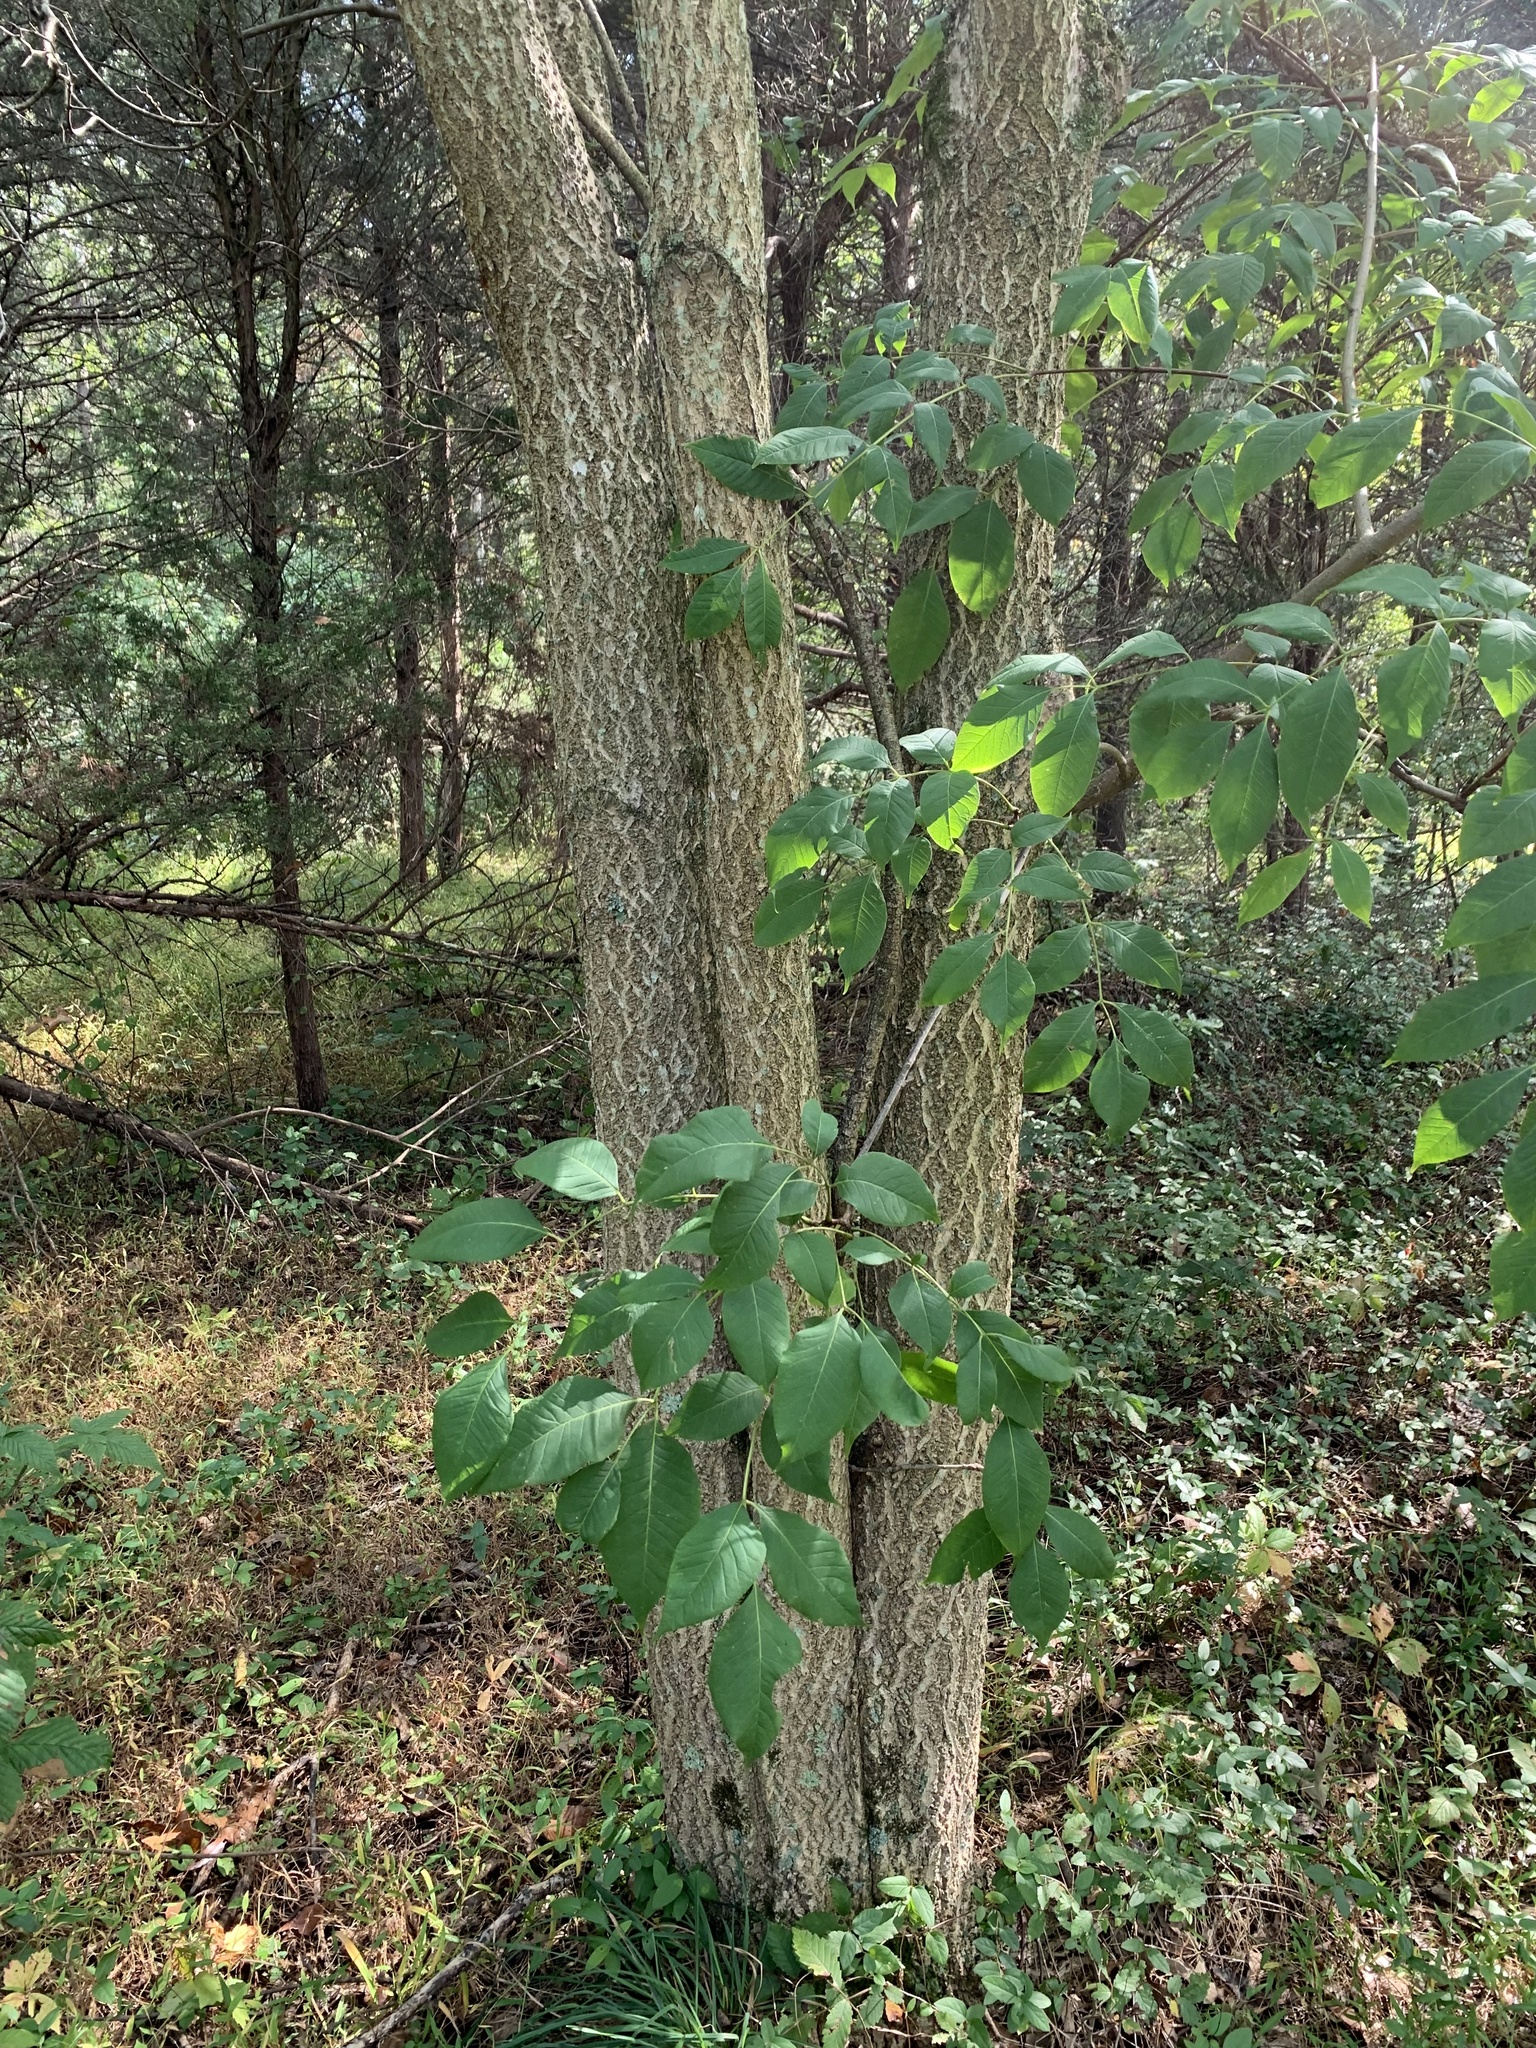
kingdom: Plantae
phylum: Tracheophyta
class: Magnoliopsida
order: Sapindales
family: Rutaceae
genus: Phellodendron
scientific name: Phellodendron amurense
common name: Amur corktree
